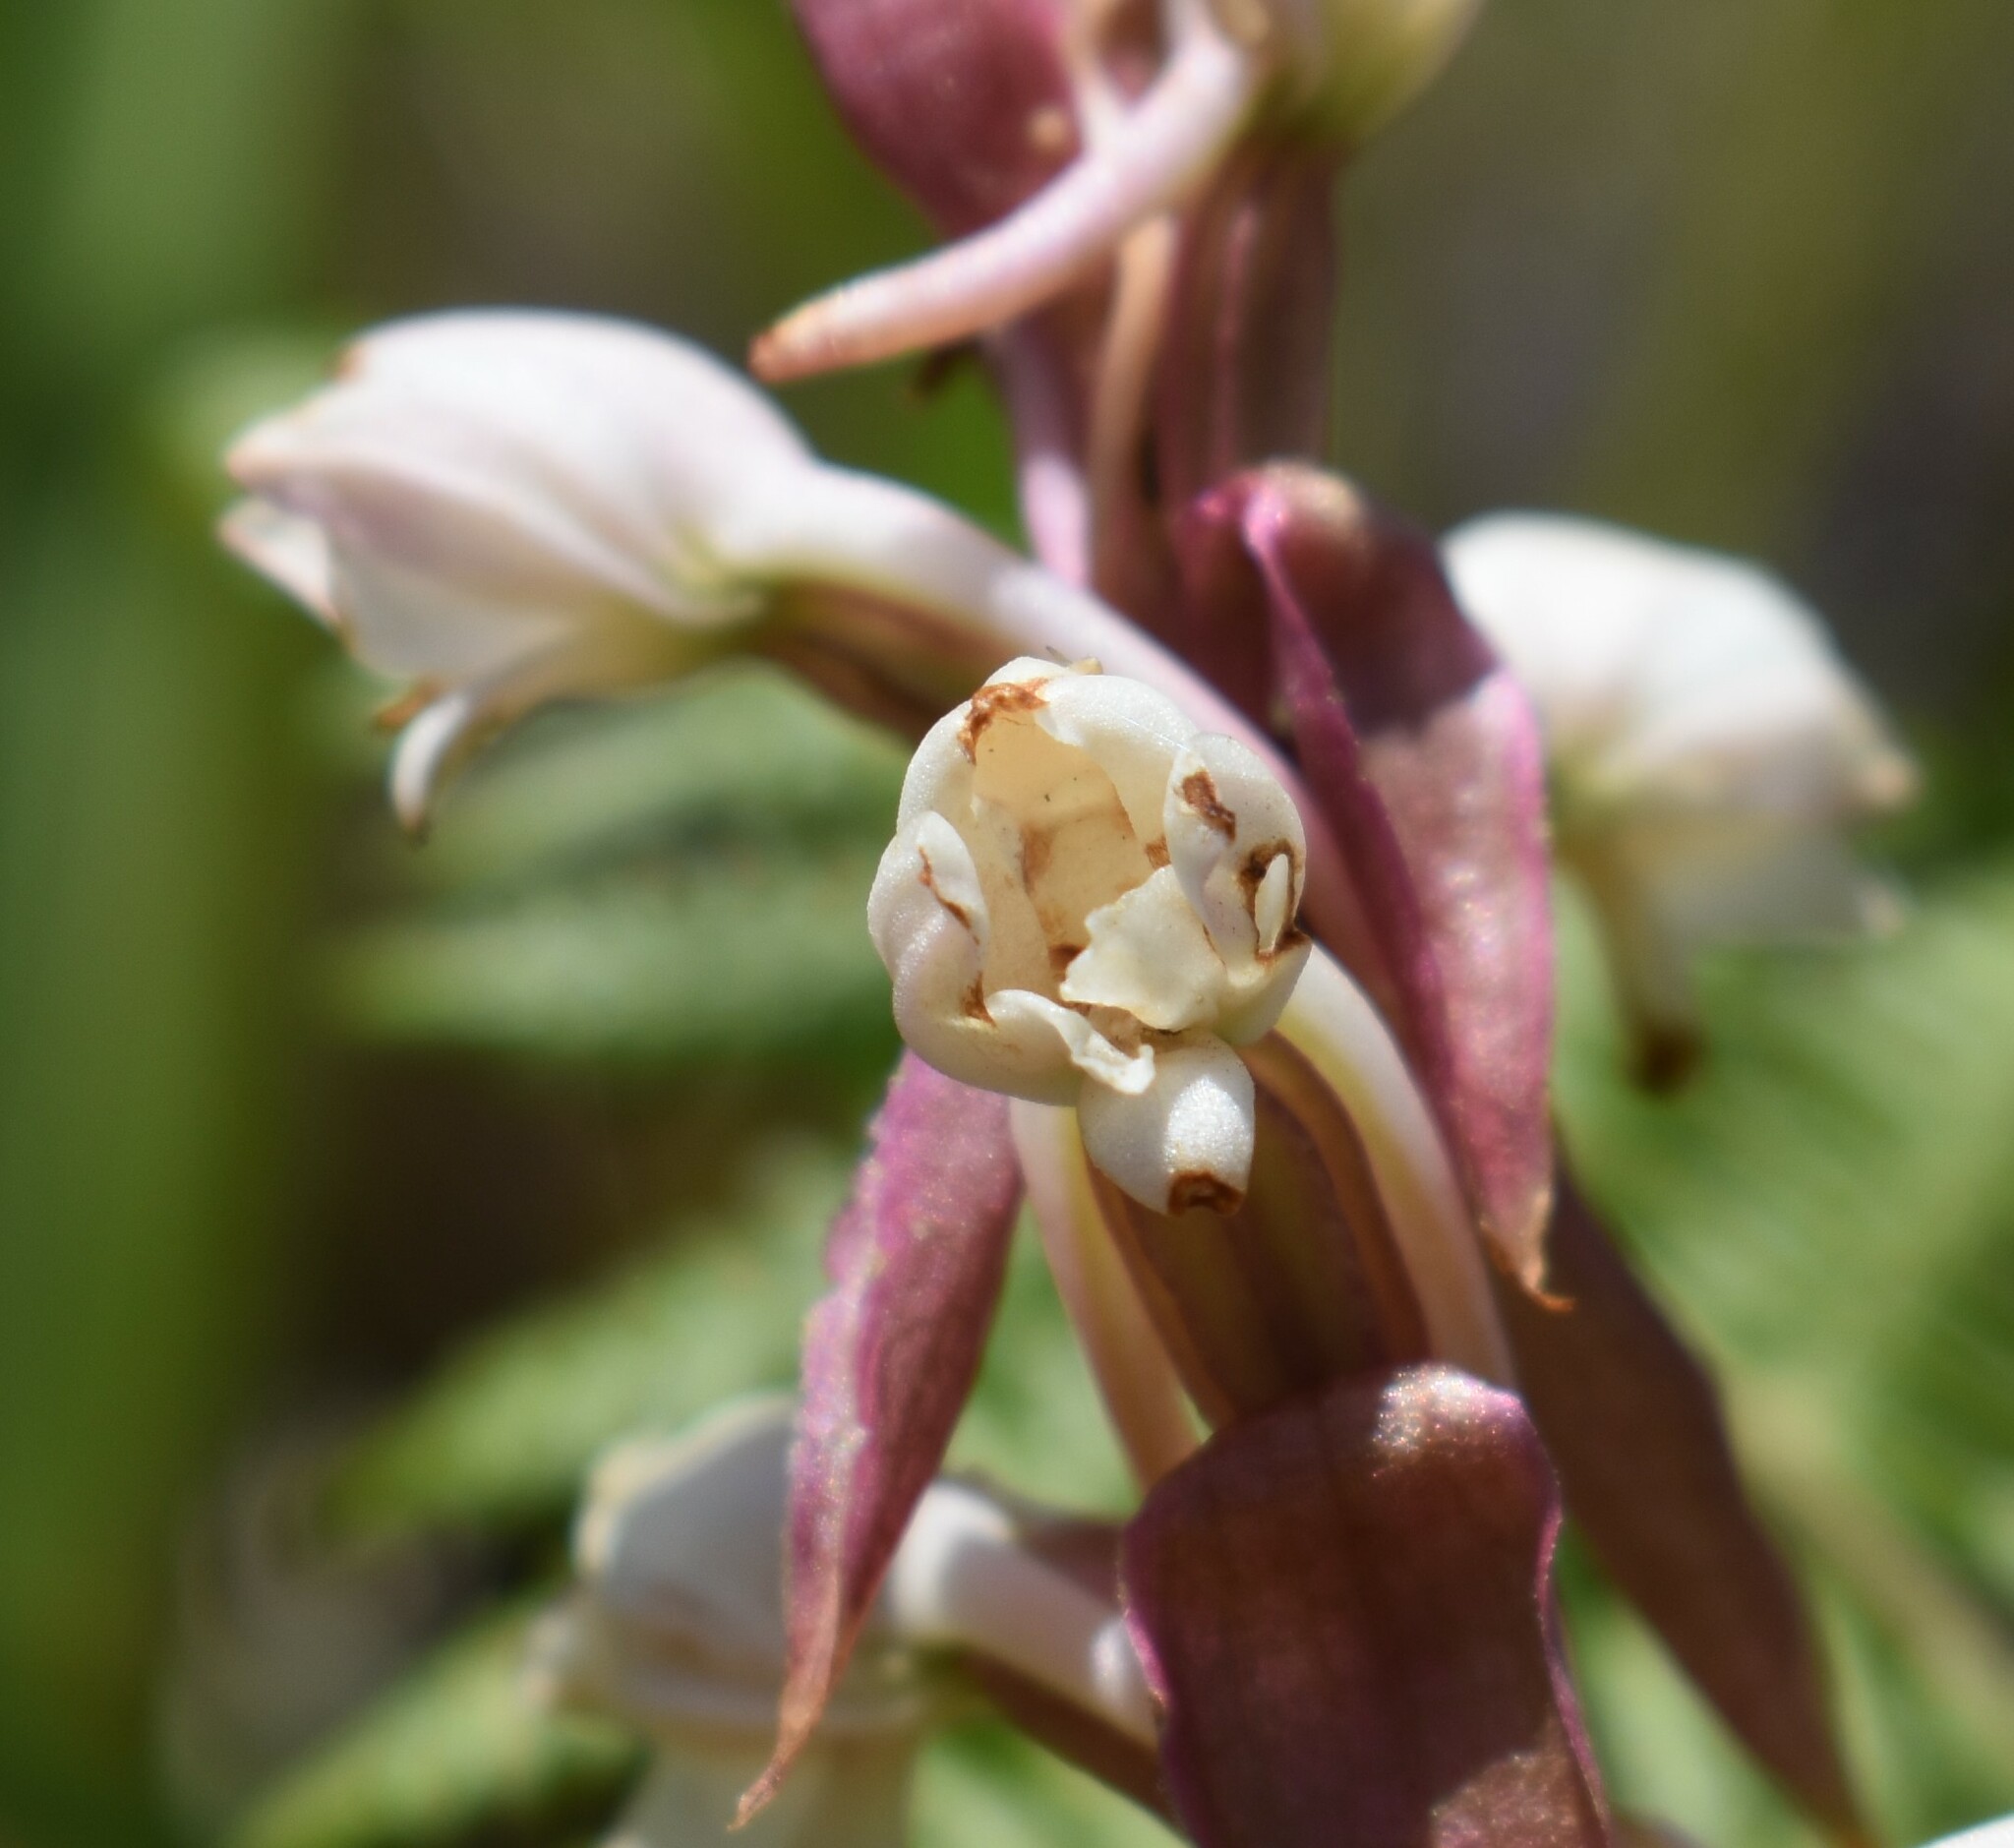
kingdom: Plantae
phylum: Tracheophyta
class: Liliopsida
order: Asparagales
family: Orchidaceae
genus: Satyrium
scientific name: Satyrium
